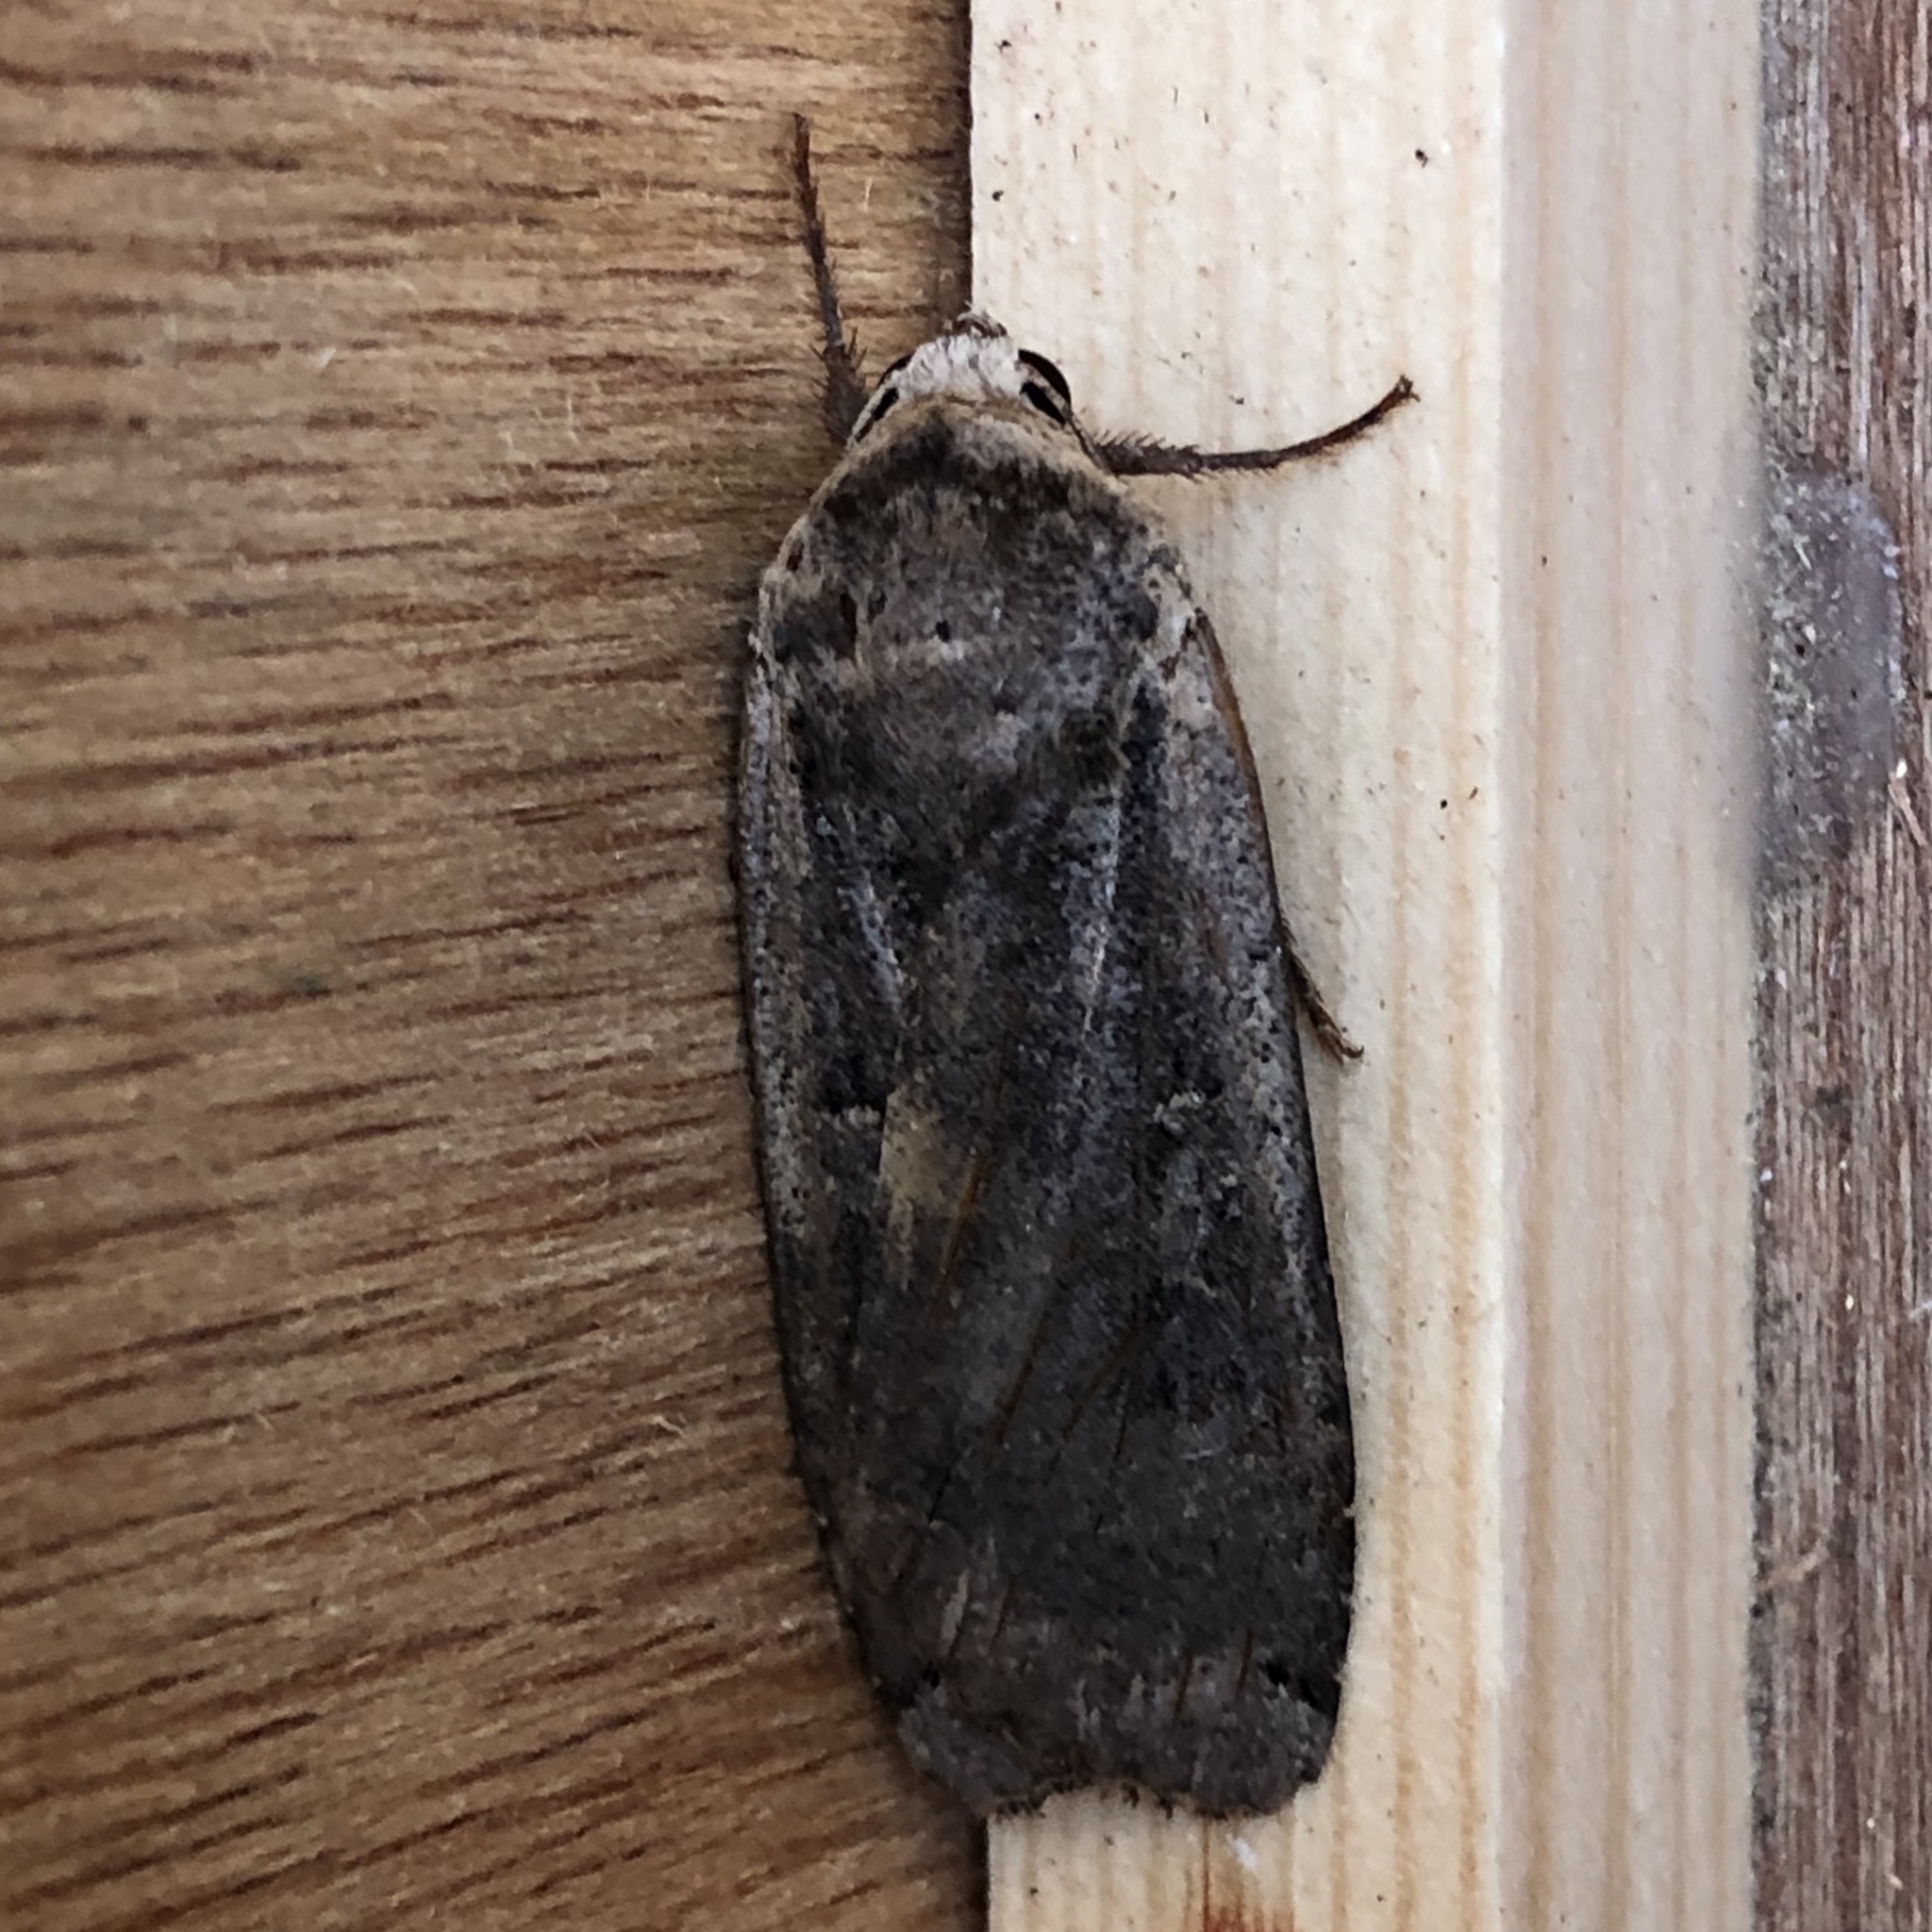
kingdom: Animalia
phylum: Arthropoda
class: Insecta
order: Lepidoptera
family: Noctuidae
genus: Noctua
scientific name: Noctua pronuba
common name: Large yellow underwing
